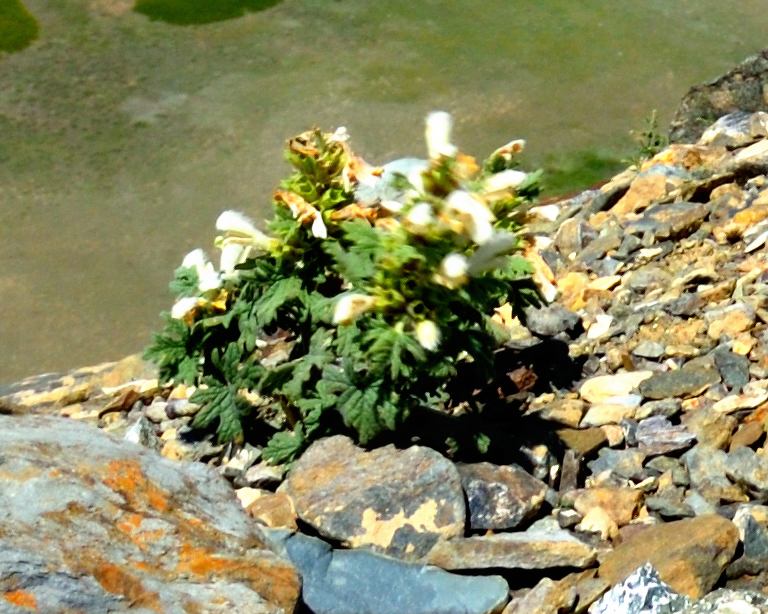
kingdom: Plantae
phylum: Tracheophyta
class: Magnoliopsida
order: Lamiales
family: Lamiaceae
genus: Panzerina
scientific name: Panzerina canescens
